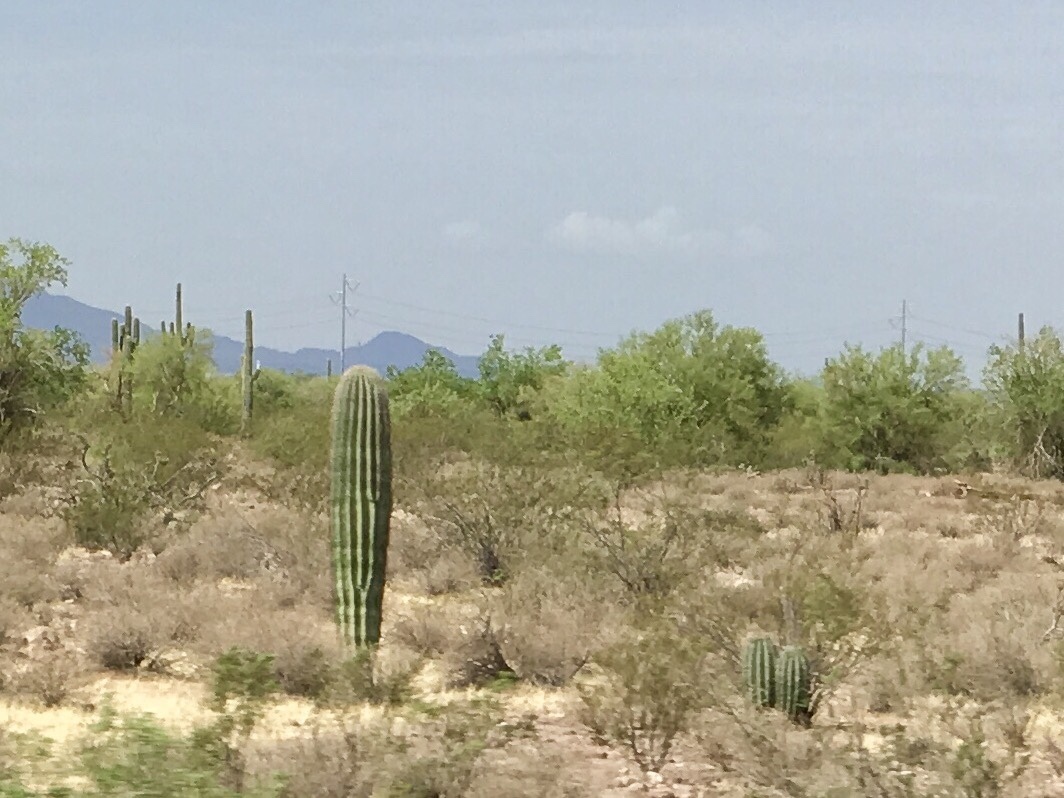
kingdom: Plantae
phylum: Tracheophyta
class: Magnoliopsida
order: Caryophyllales
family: Cactaceae
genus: Carnegiea
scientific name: Carnegiea gigantea
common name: Saguaro
